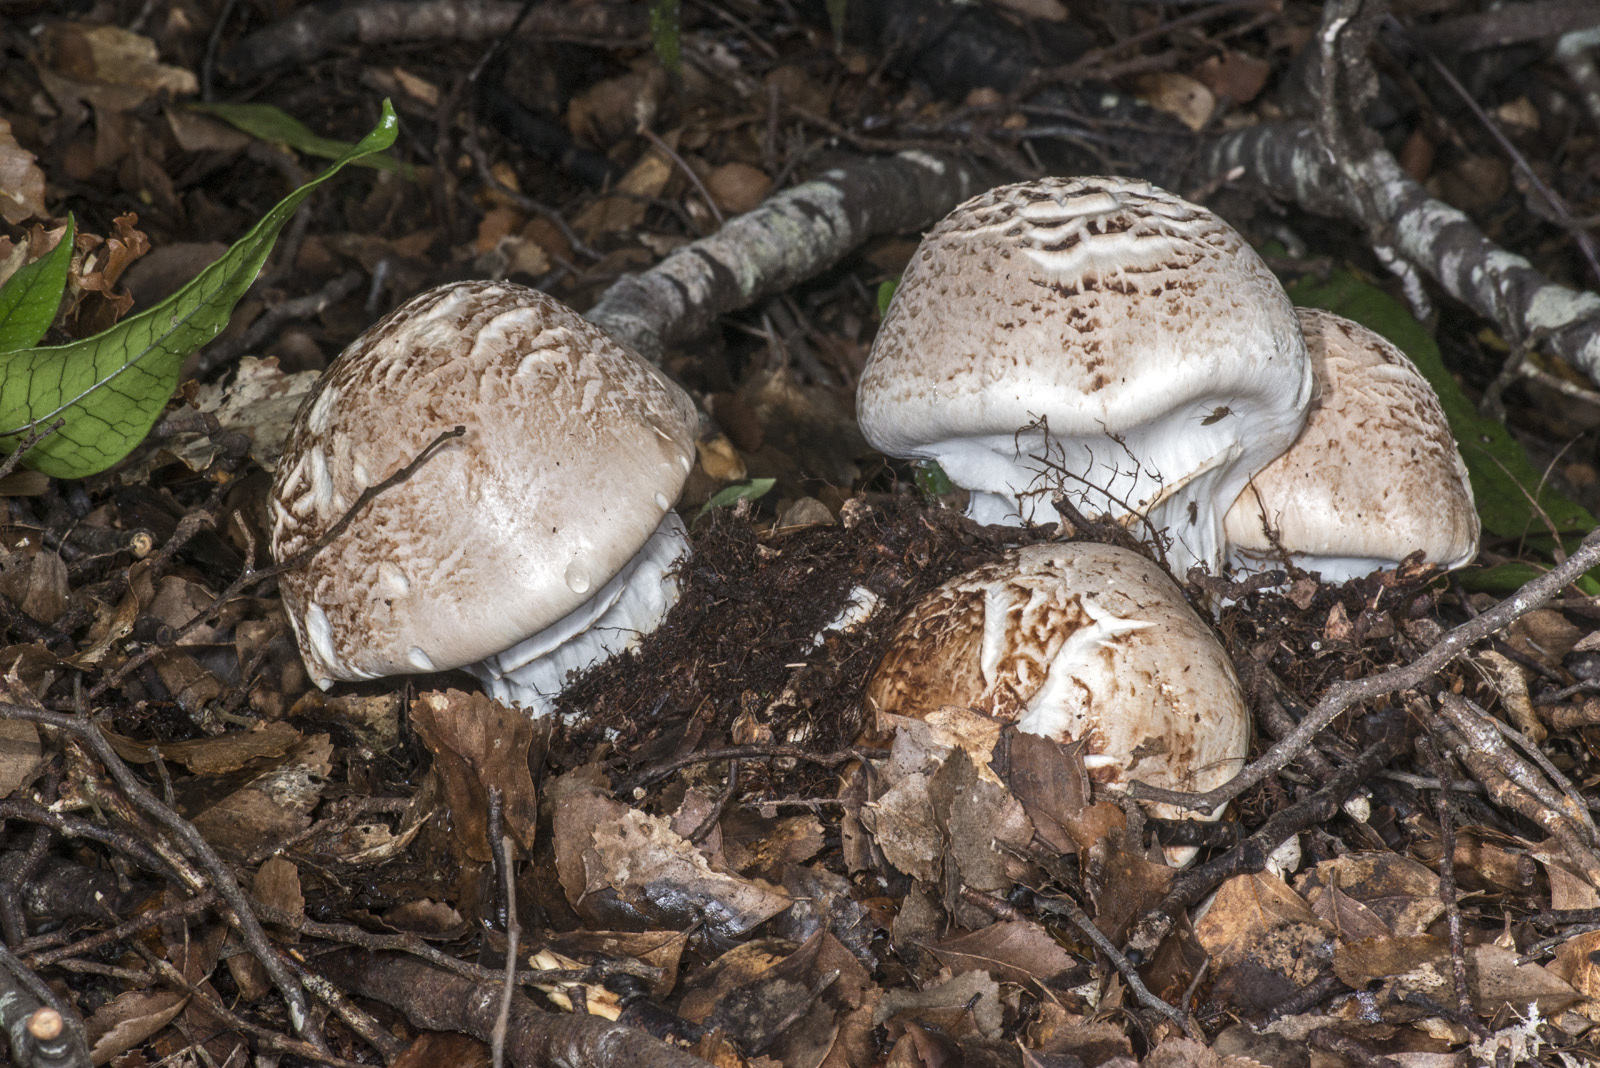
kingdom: Fungi
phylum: Basidiomycota
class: Agaricomycetes
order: Agaricales
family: Hymenogastraceae
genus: Hebeloma
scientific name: Hebeloma victoriense
